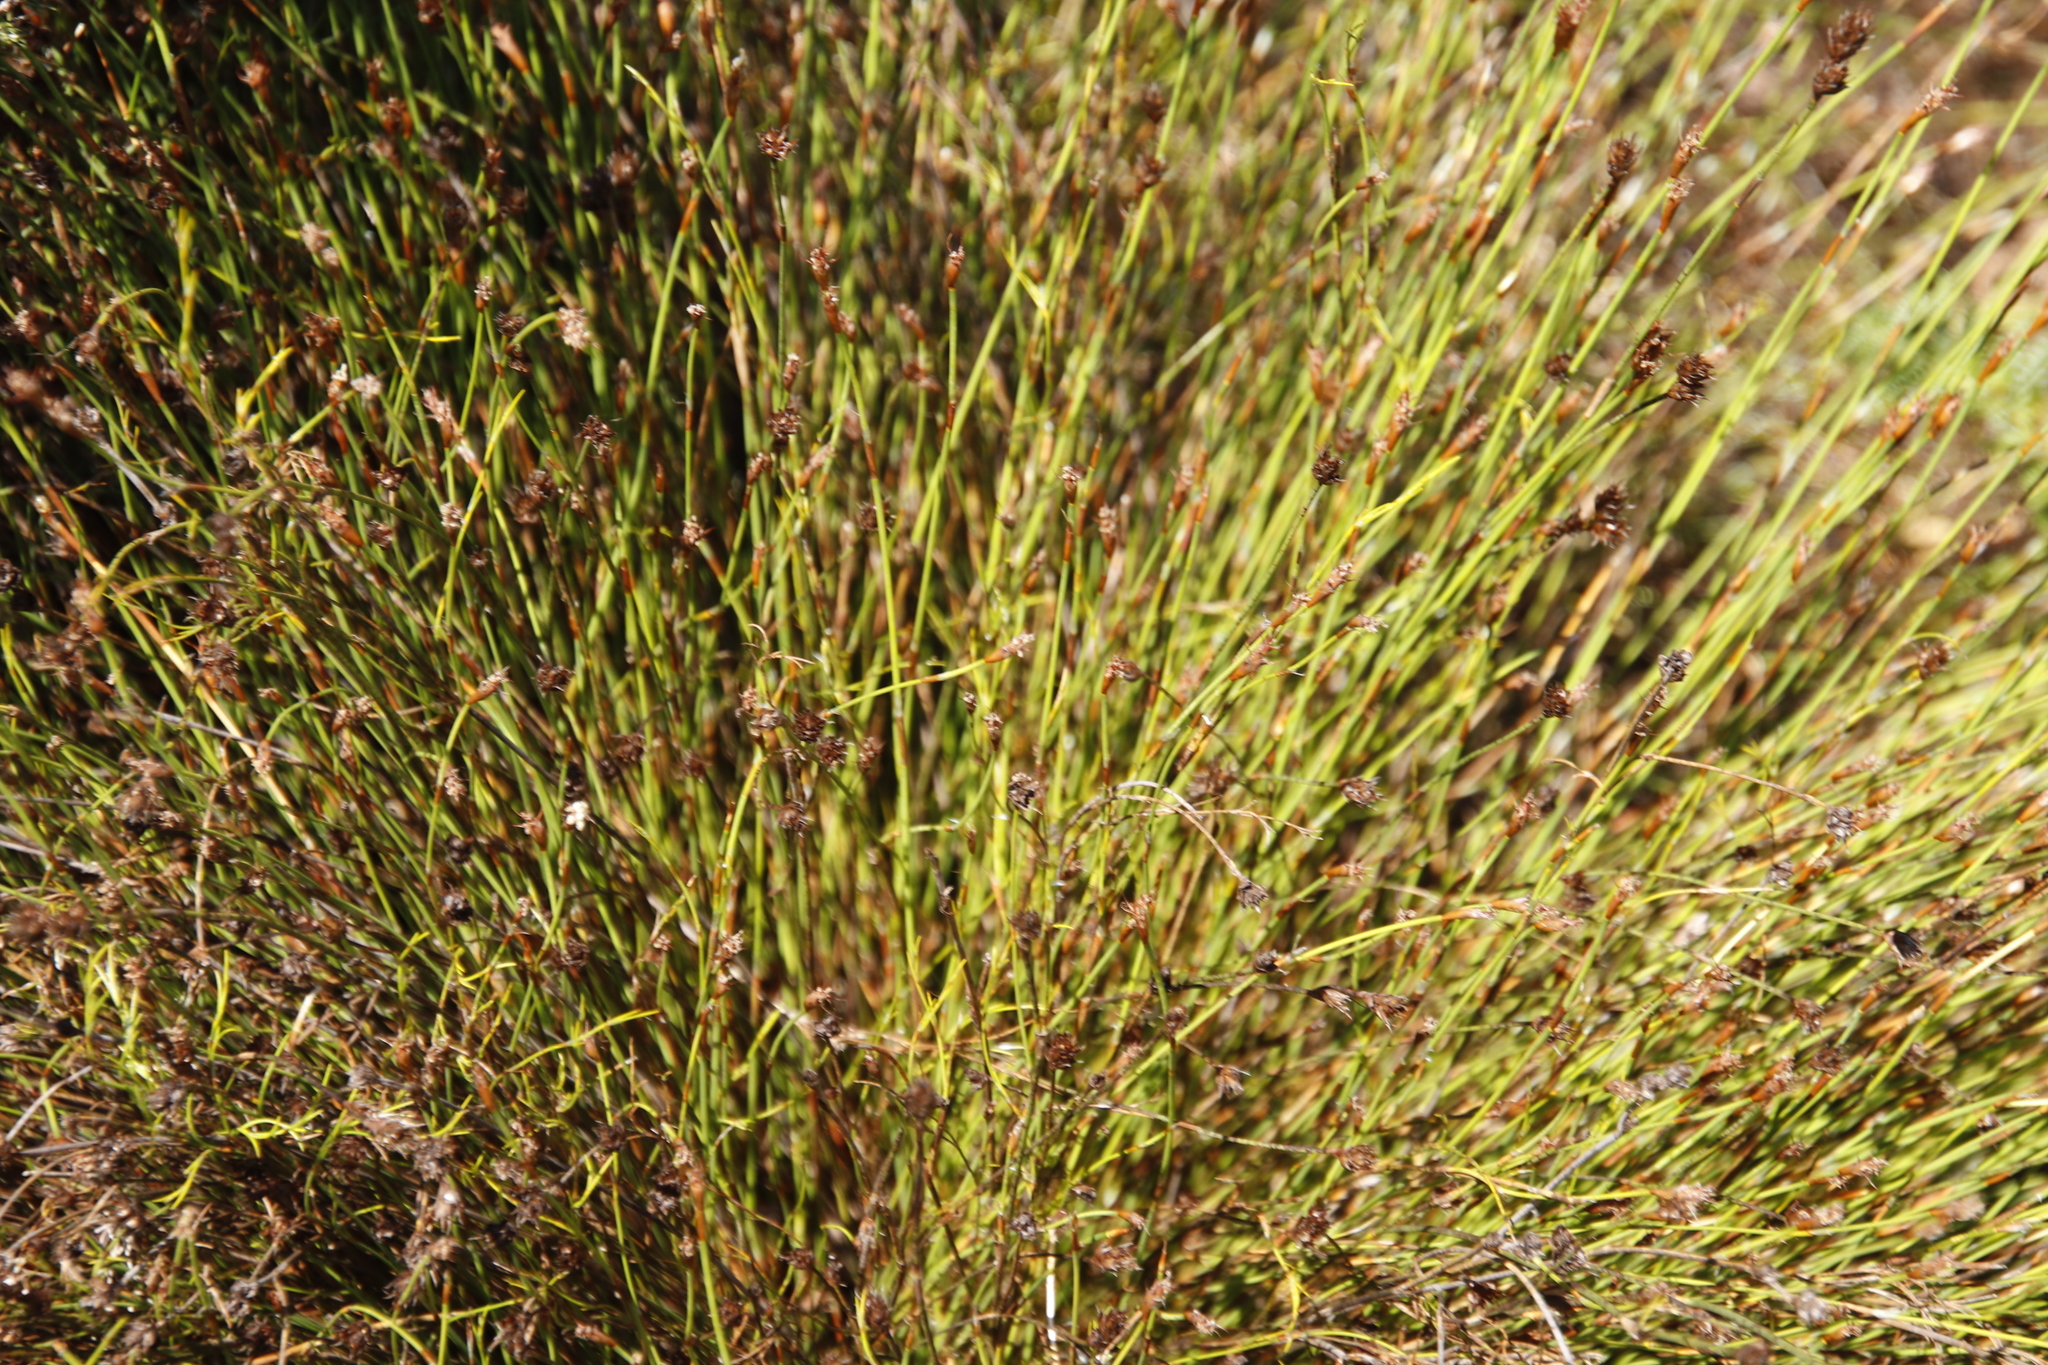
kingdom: Plantae
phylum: Tracheophyta
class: Liliopsida
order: Poales
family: Restionaceae
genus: Restio
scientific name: Restio capensis
